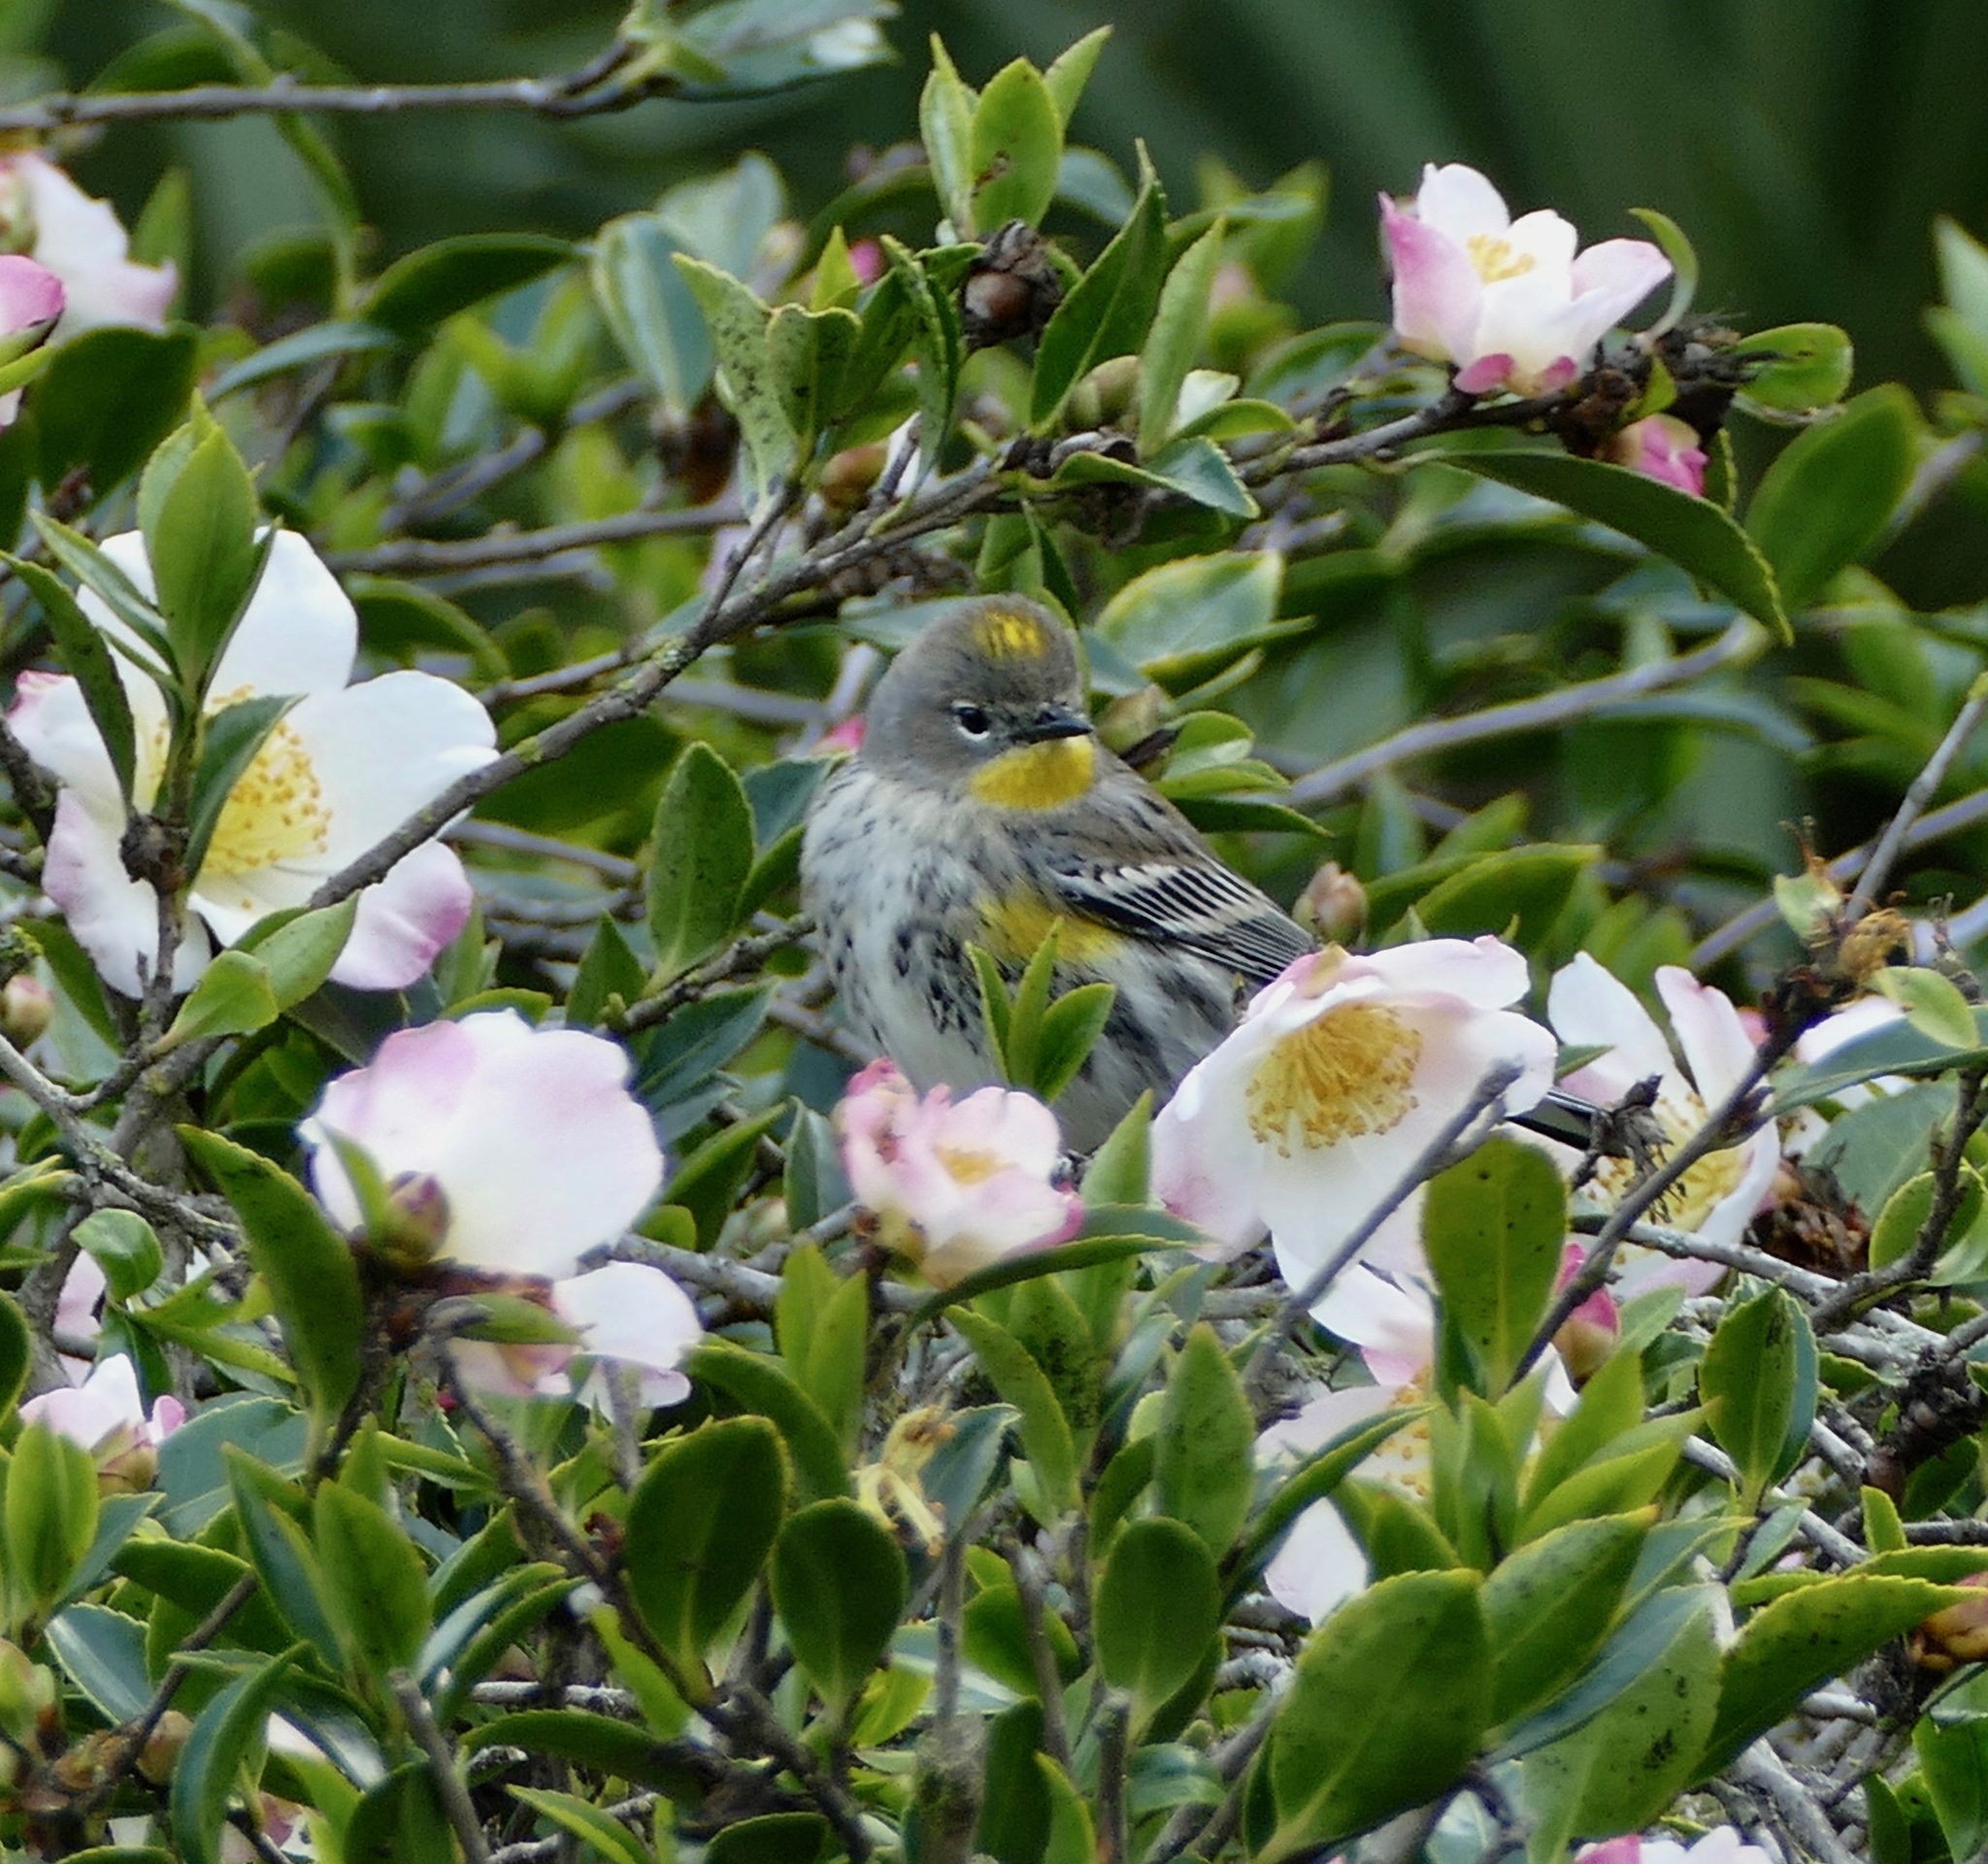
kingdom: Animalia
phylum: Chordata
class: Aves
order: Passeriformes
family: Parulidae
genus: Setophaga
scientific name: Setophaga coronata
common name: Myrtle warbler
